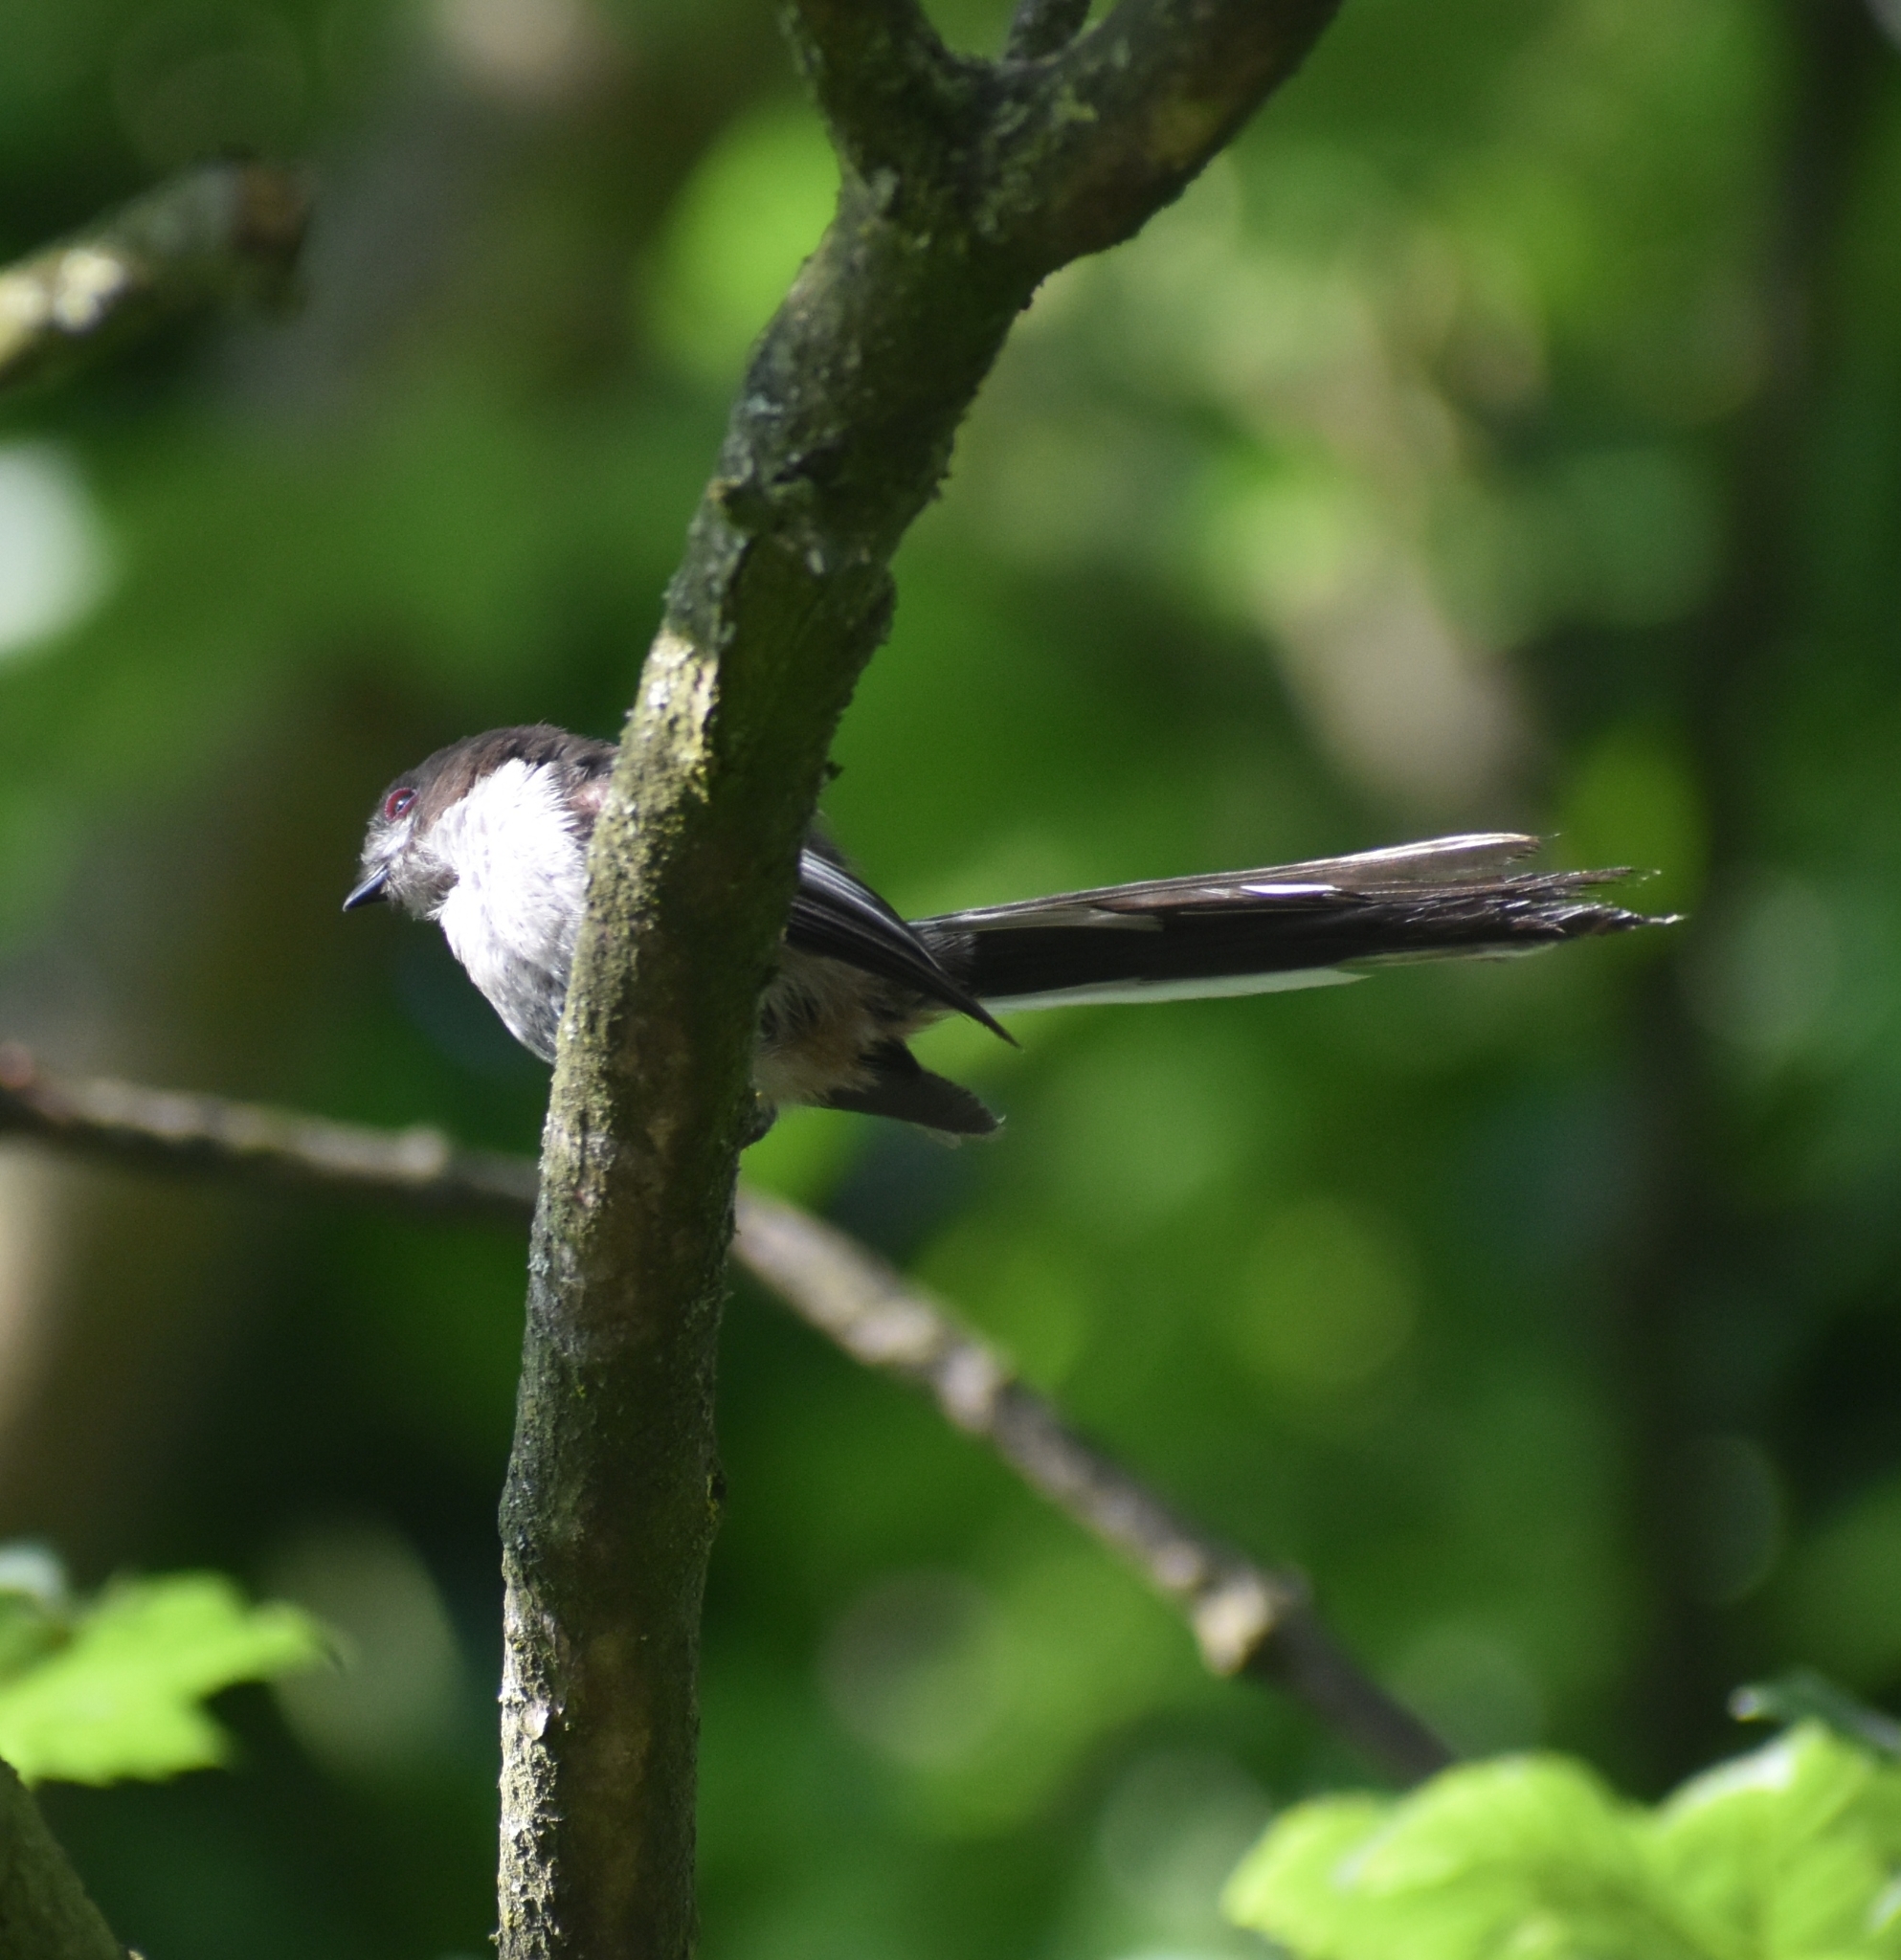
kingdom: Animalia
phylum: Chordata
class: Aves
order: Passeriformes
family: Aegithalidae
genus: Aegithalos
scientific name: Aegithalos caudatus
